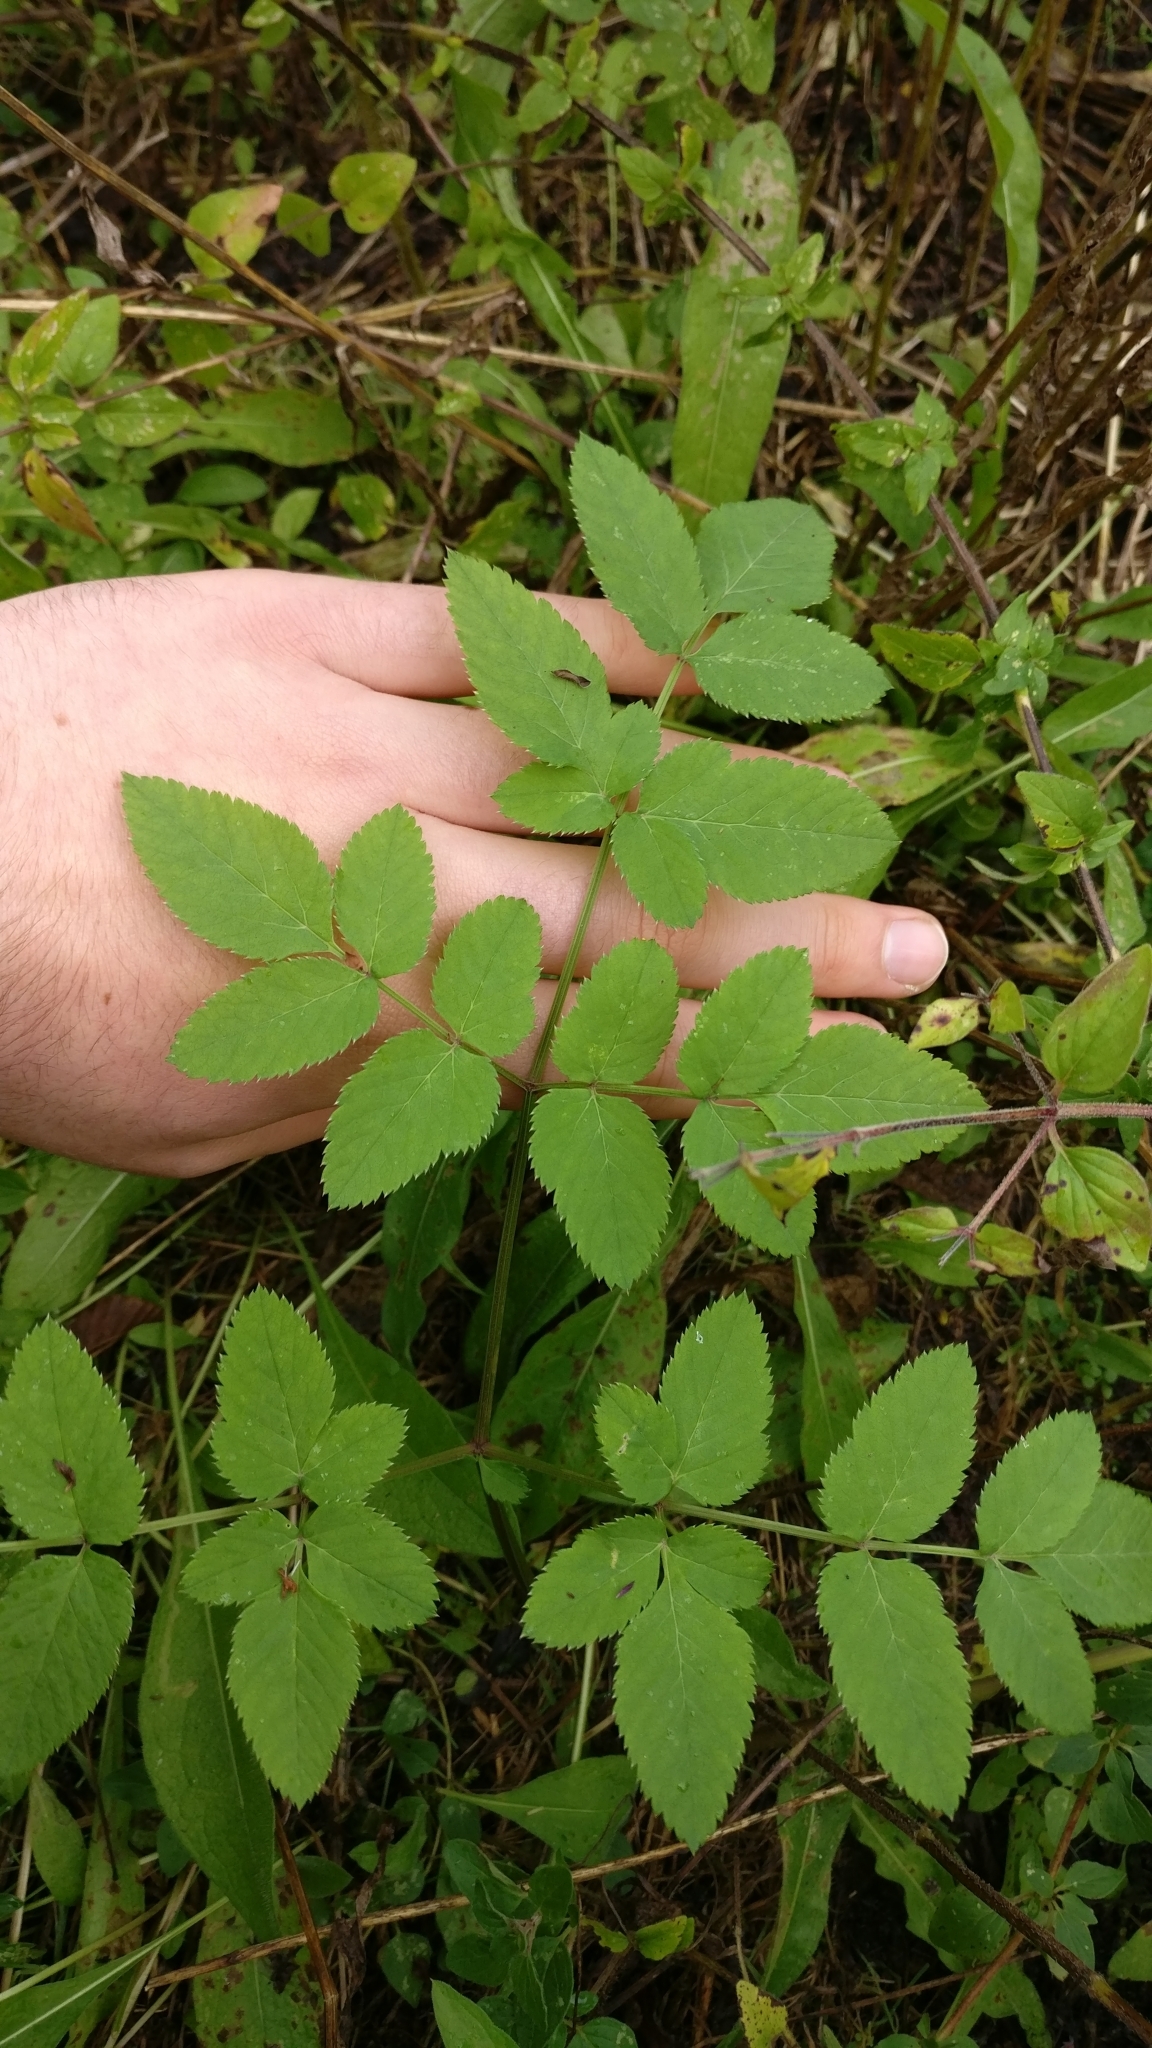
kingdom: Plantae
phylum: Tracheophyta
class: Magnoliopsida
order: Apiales
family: Apiaceae
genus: Angelica
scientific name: Angelica sylvestris
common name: Wild angelica
